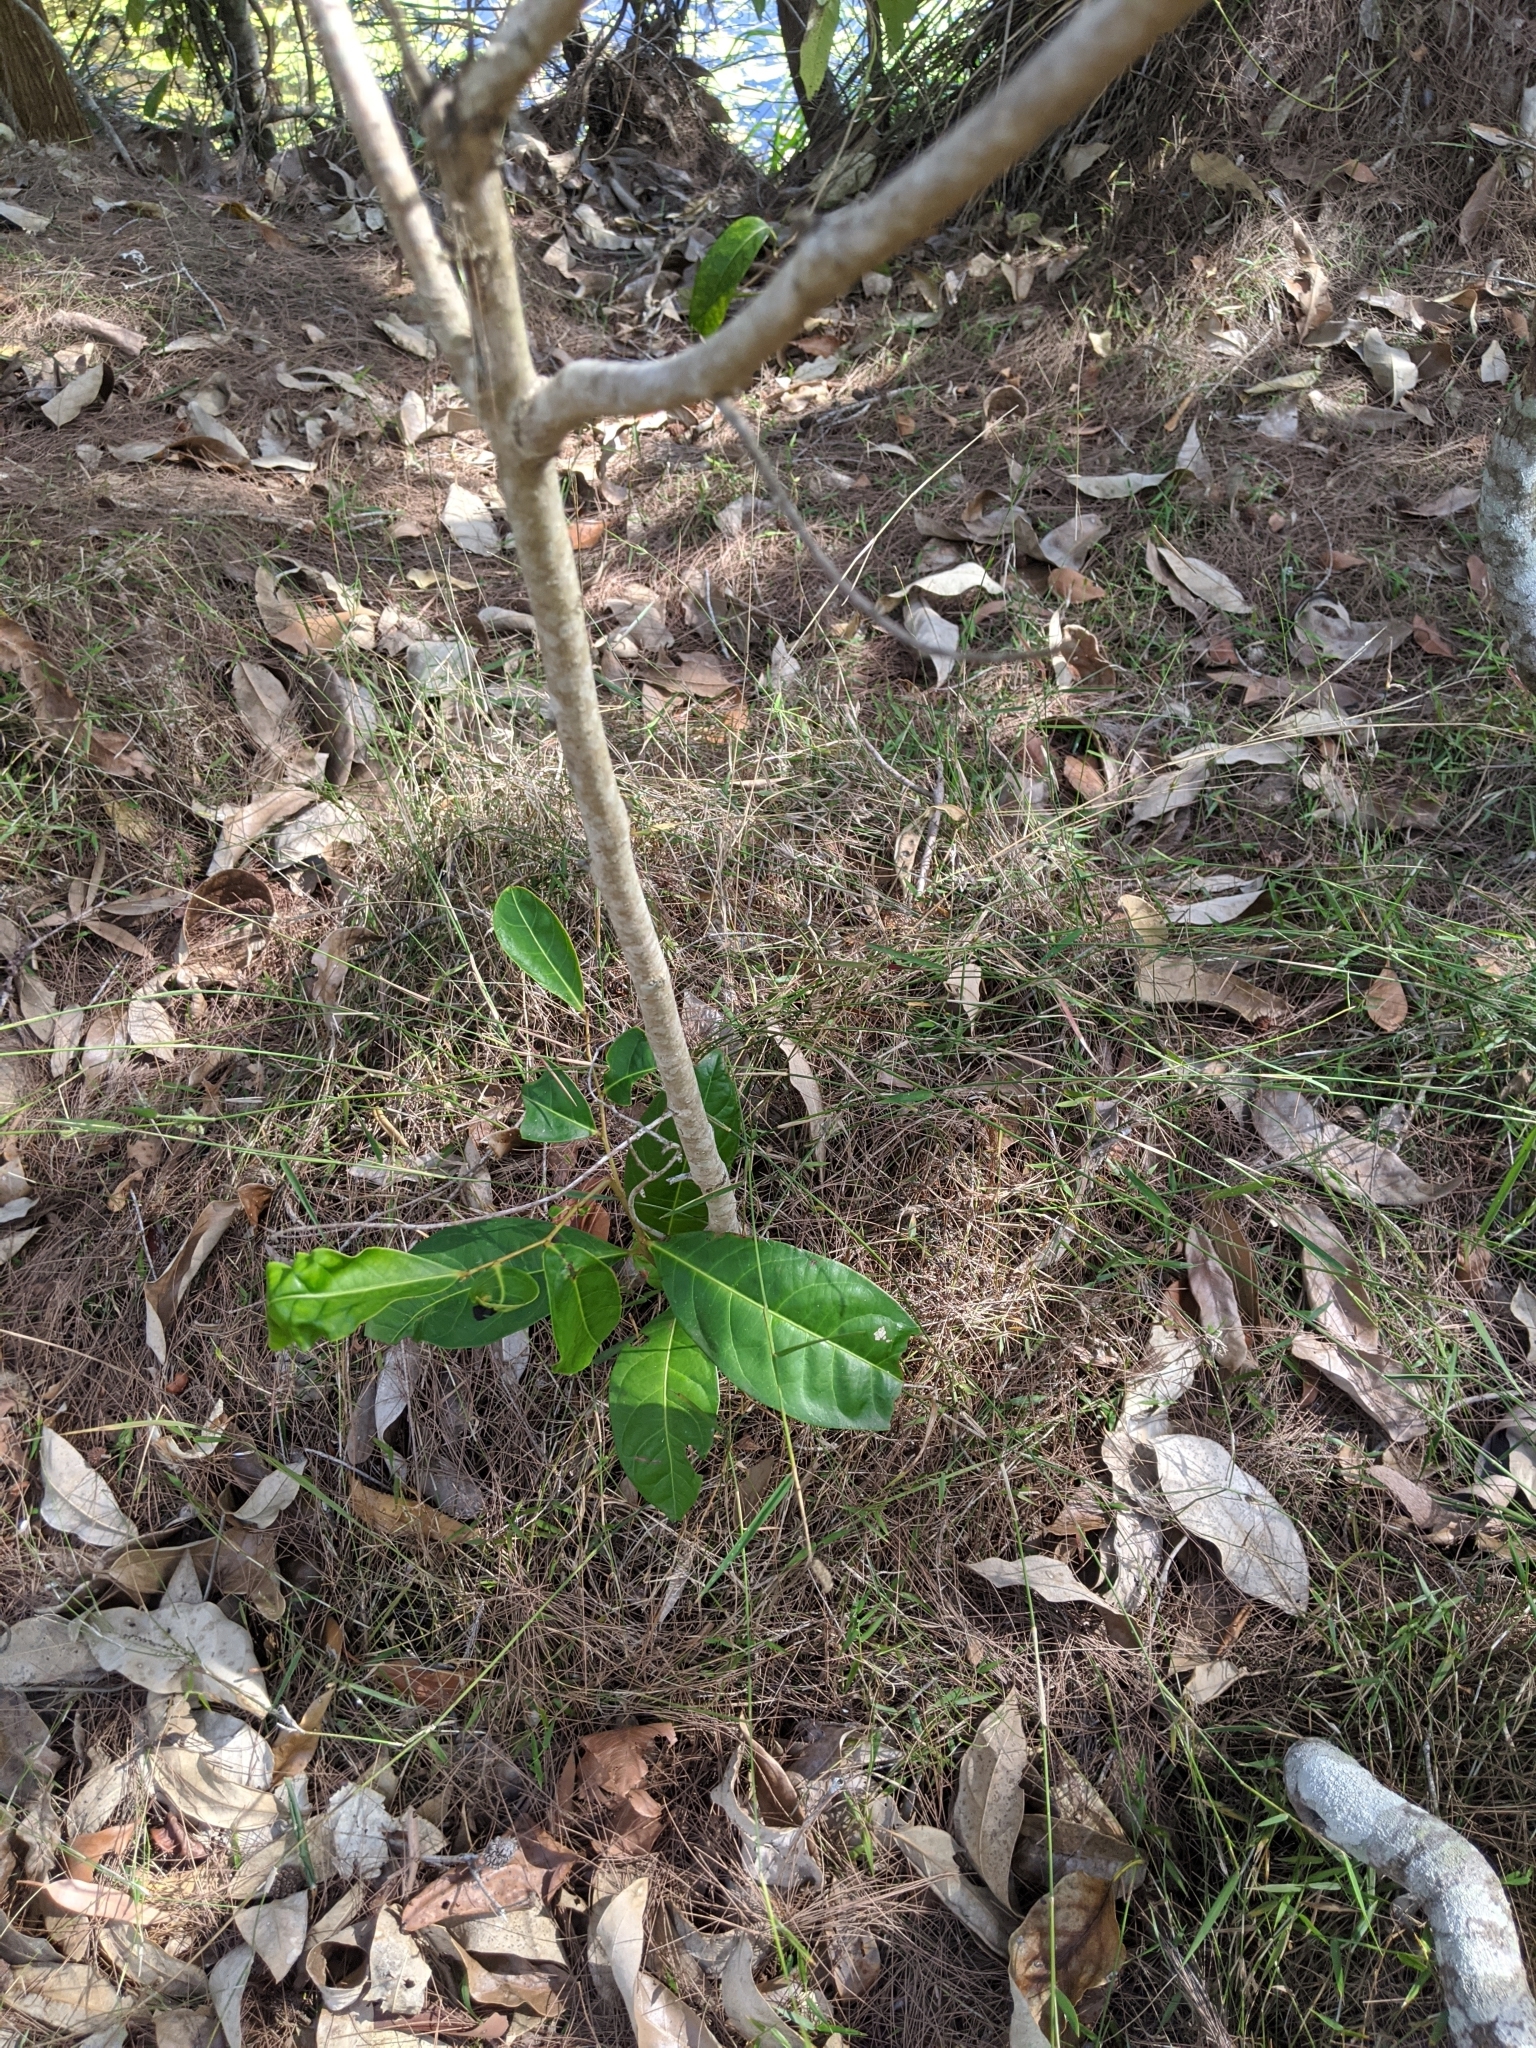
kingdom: Plantae
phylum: Tracheophyta
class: Magnoliopsida
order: Malpighiales
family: Phyllanthaceae
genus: Glochidion
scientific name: Glochidion ferdinandi
